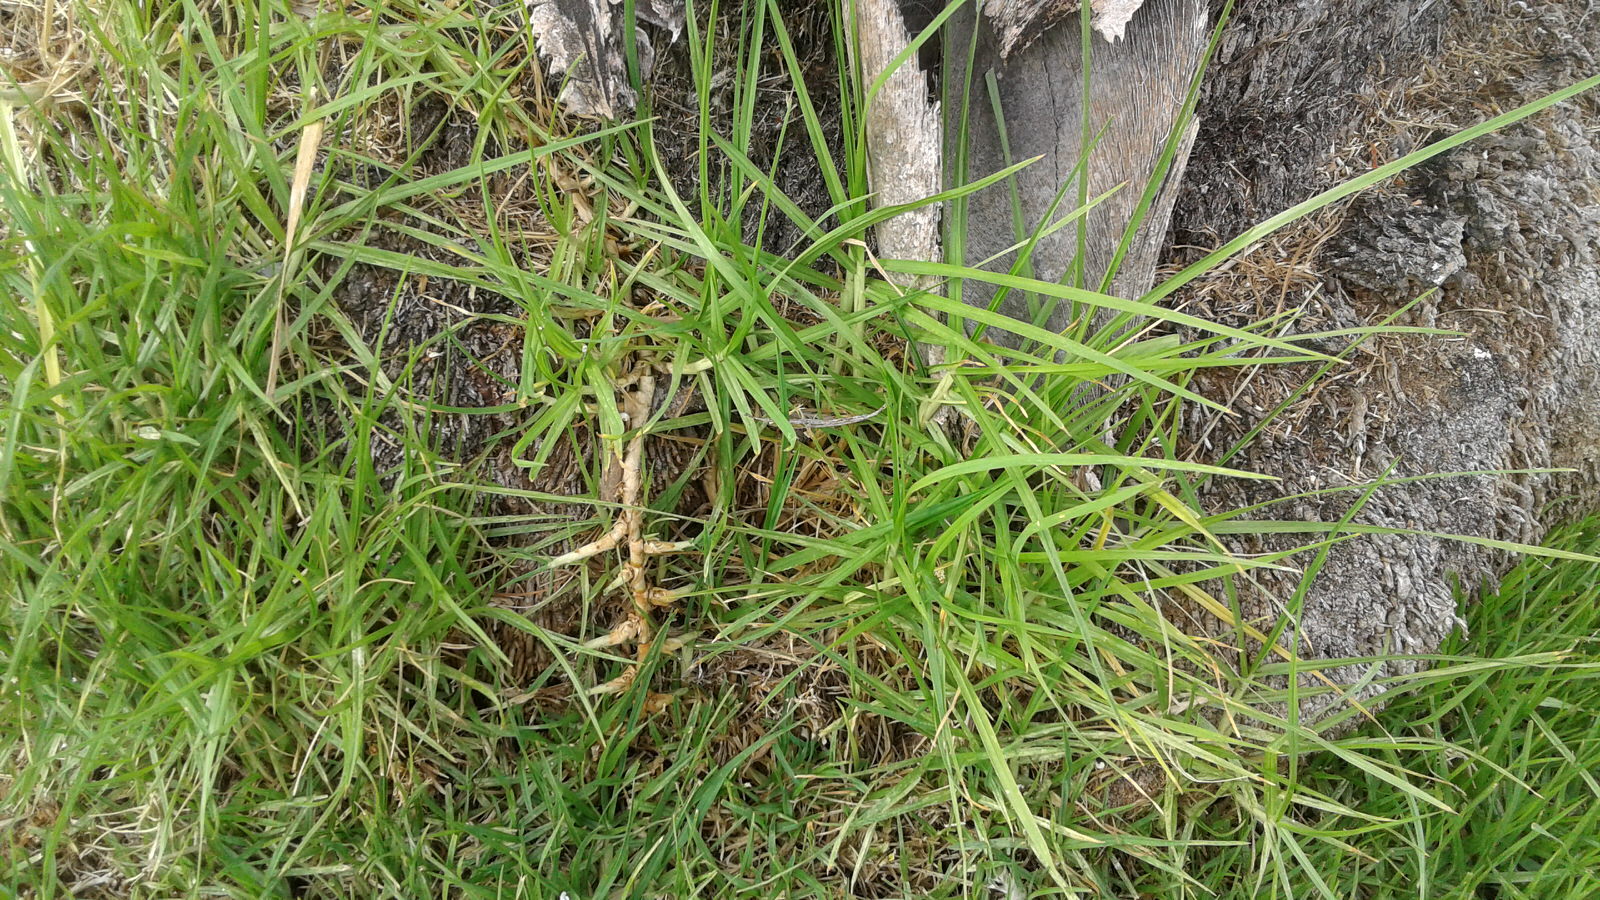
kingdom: Plantae
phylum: Tracheophyta
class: Liliopsida
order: Poales
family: Poaceae
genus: Cenchrus
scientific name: Cenchrus clandestinus
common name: Kikuyugrass
